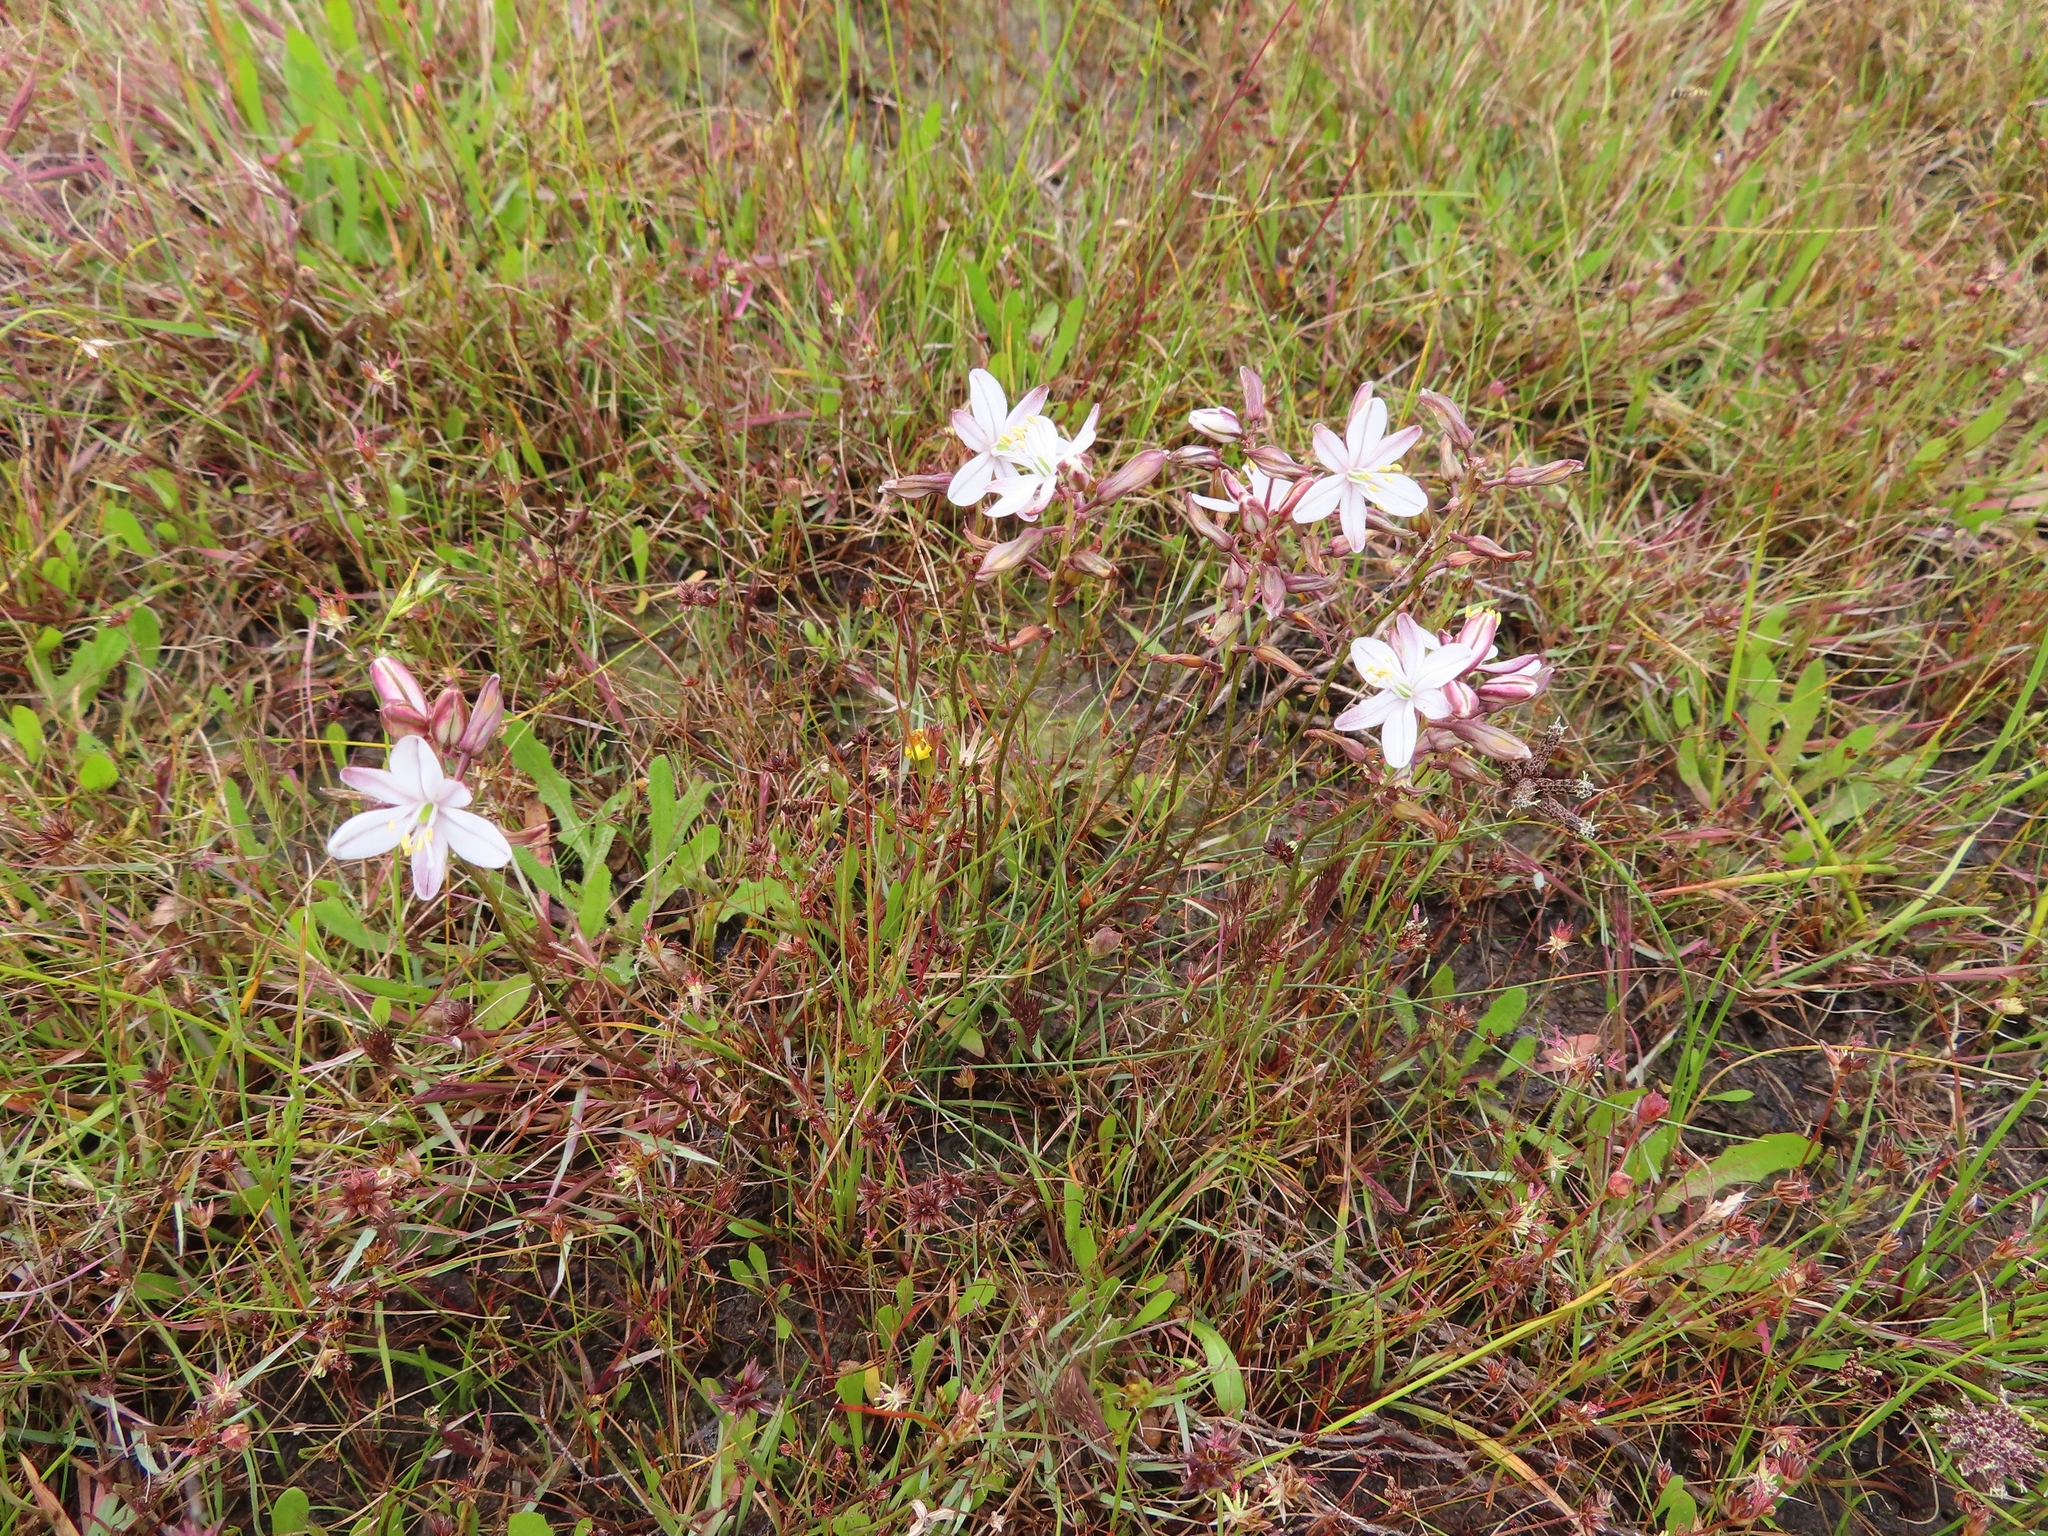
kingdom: Plantae
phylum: Tracheophyta
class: Liliopsida
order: Asparagales
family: Asparagaceae
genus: Drimia
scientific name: Drimia exuviata
